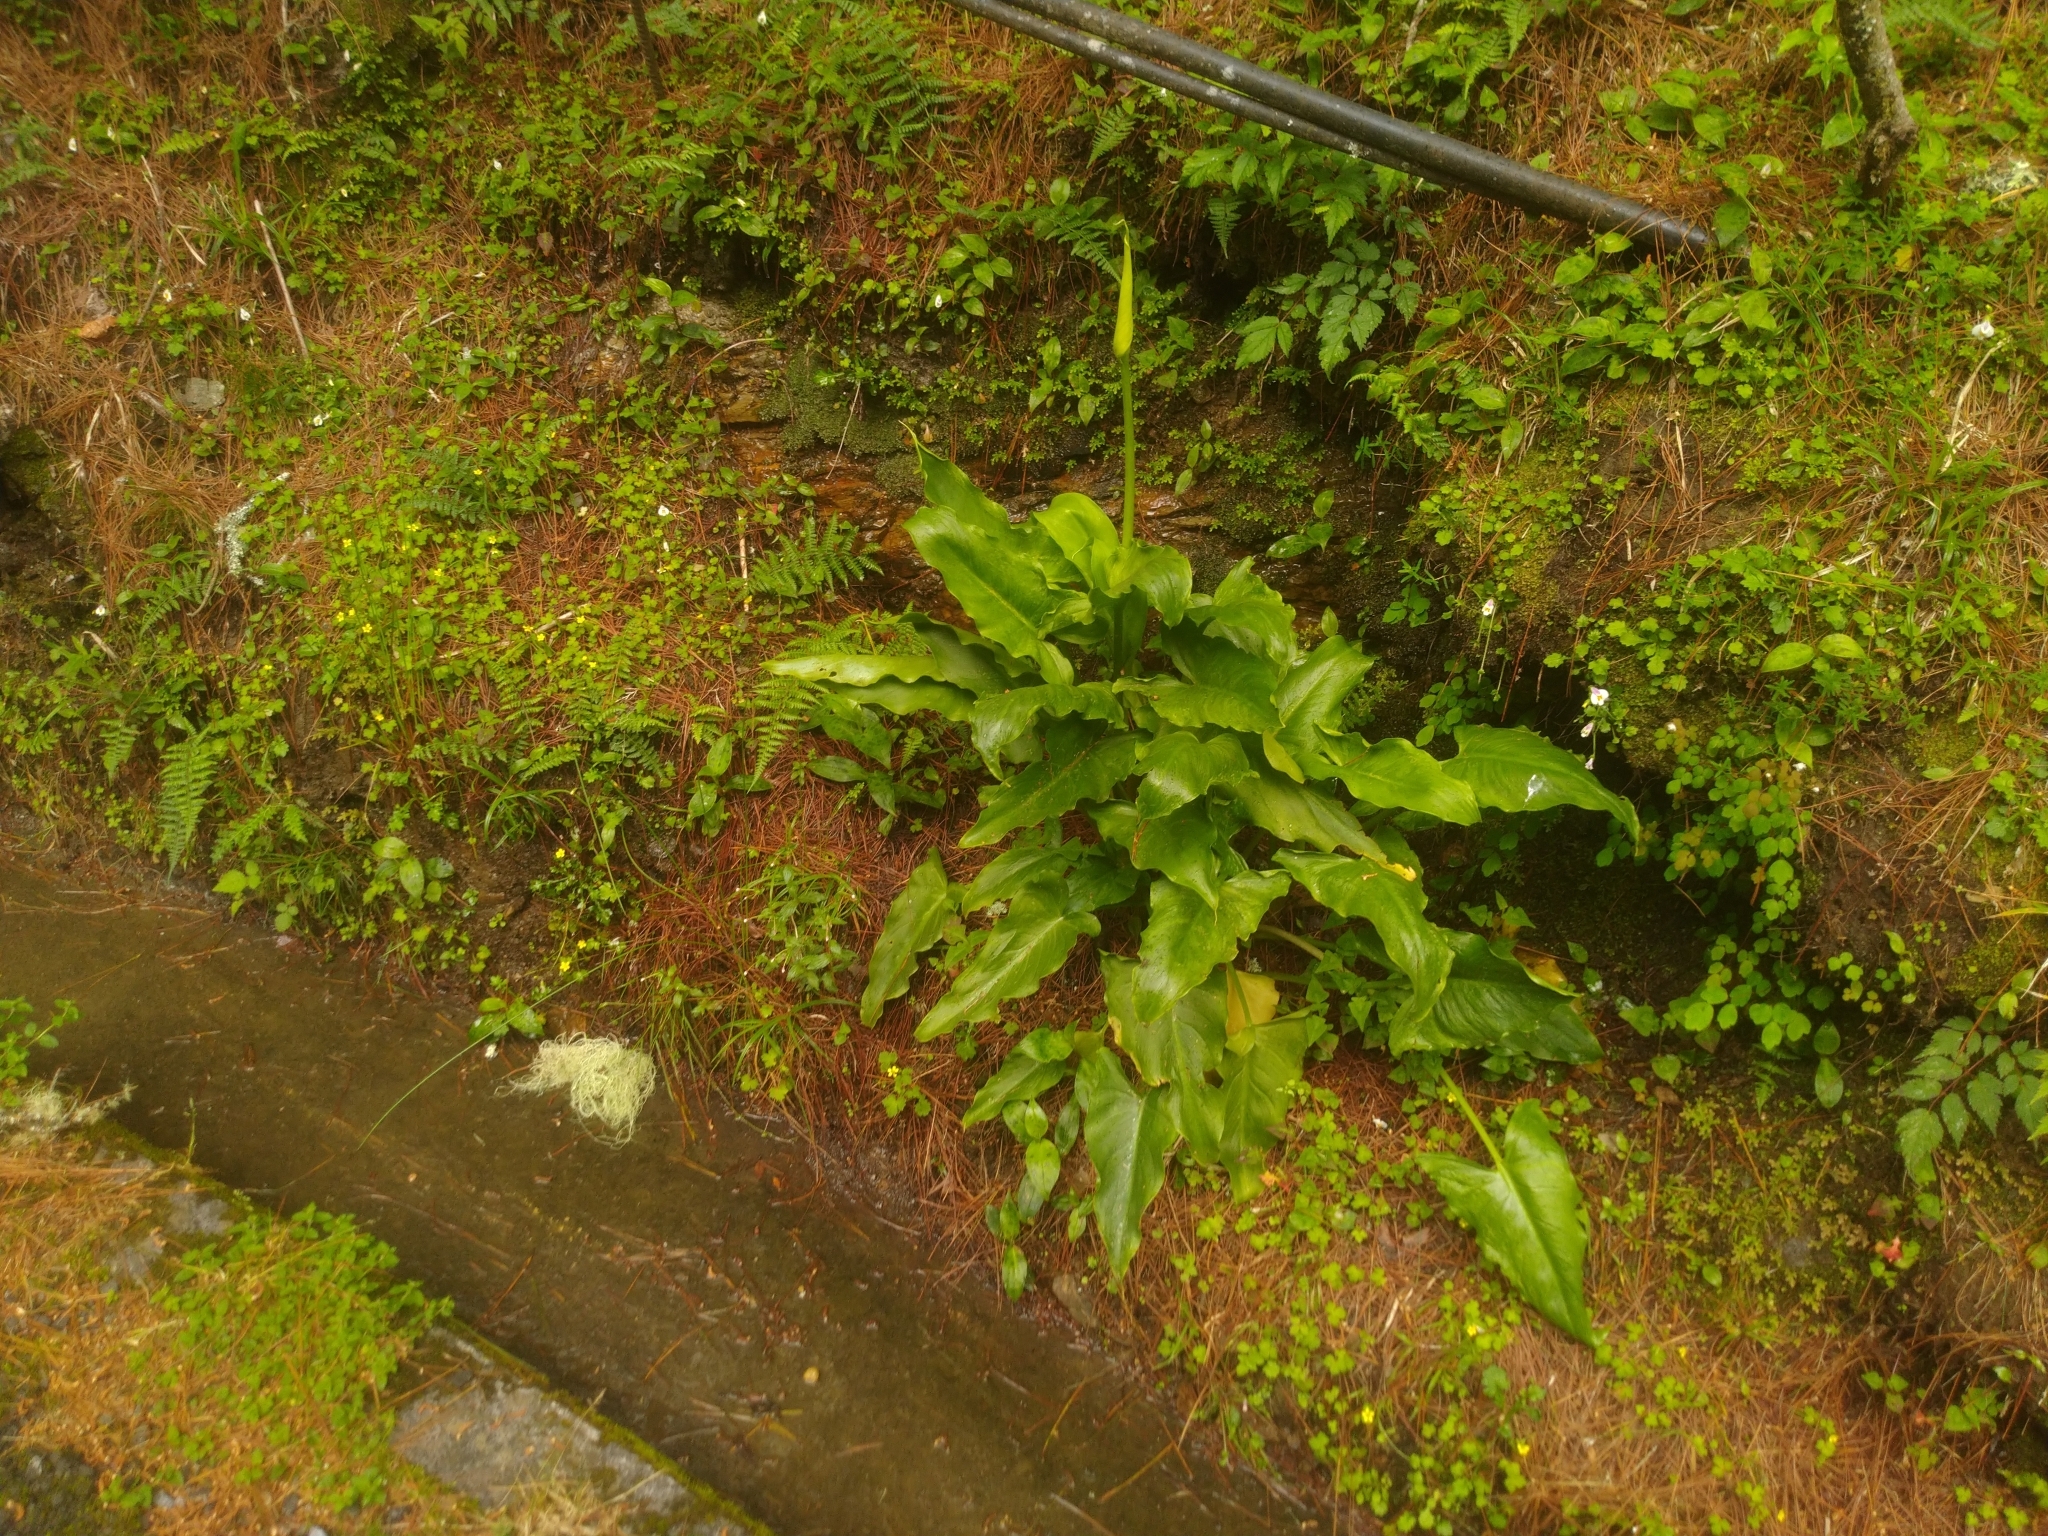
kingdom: Plantae
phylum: Tracheophyta
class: Liliopsida
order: Alismatales
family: Araceae
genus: Zantedeschia
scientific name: Zantedeschia aethiopica
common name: Altar-lily
